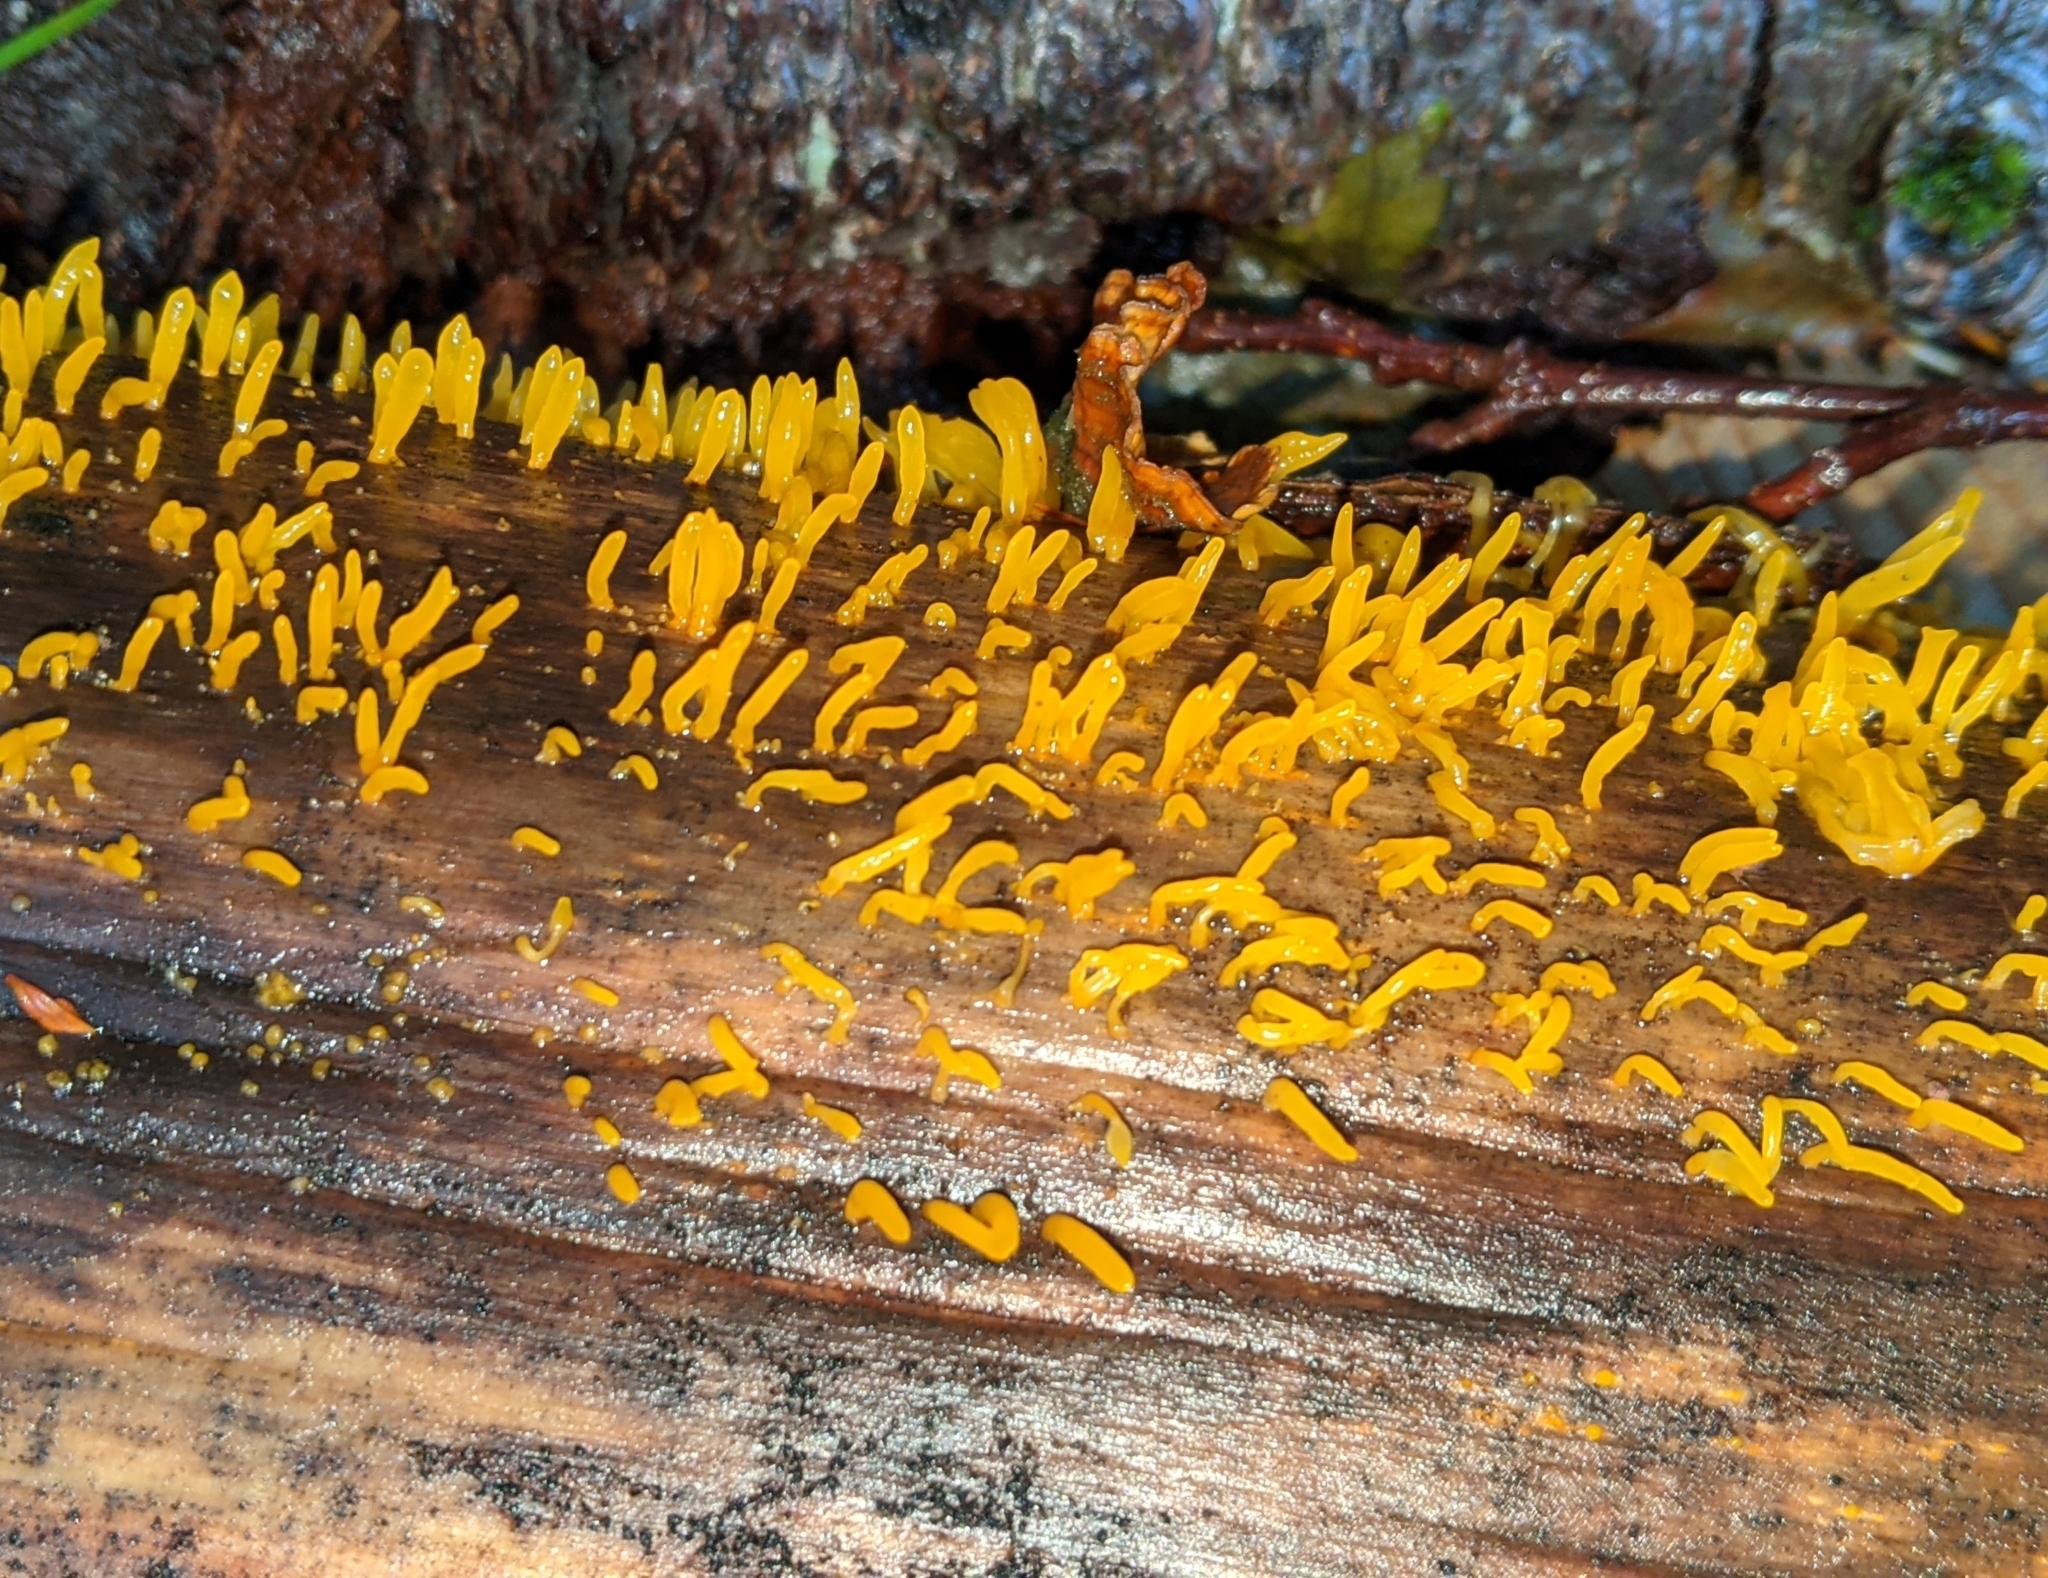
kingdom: Fungi
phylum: Basidiomycota
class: Dacrymycetes
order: Dacrymycetales
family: Dacrymycetaceae
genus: Calocera
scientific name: Calocera cornea
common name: Small stagshorn
